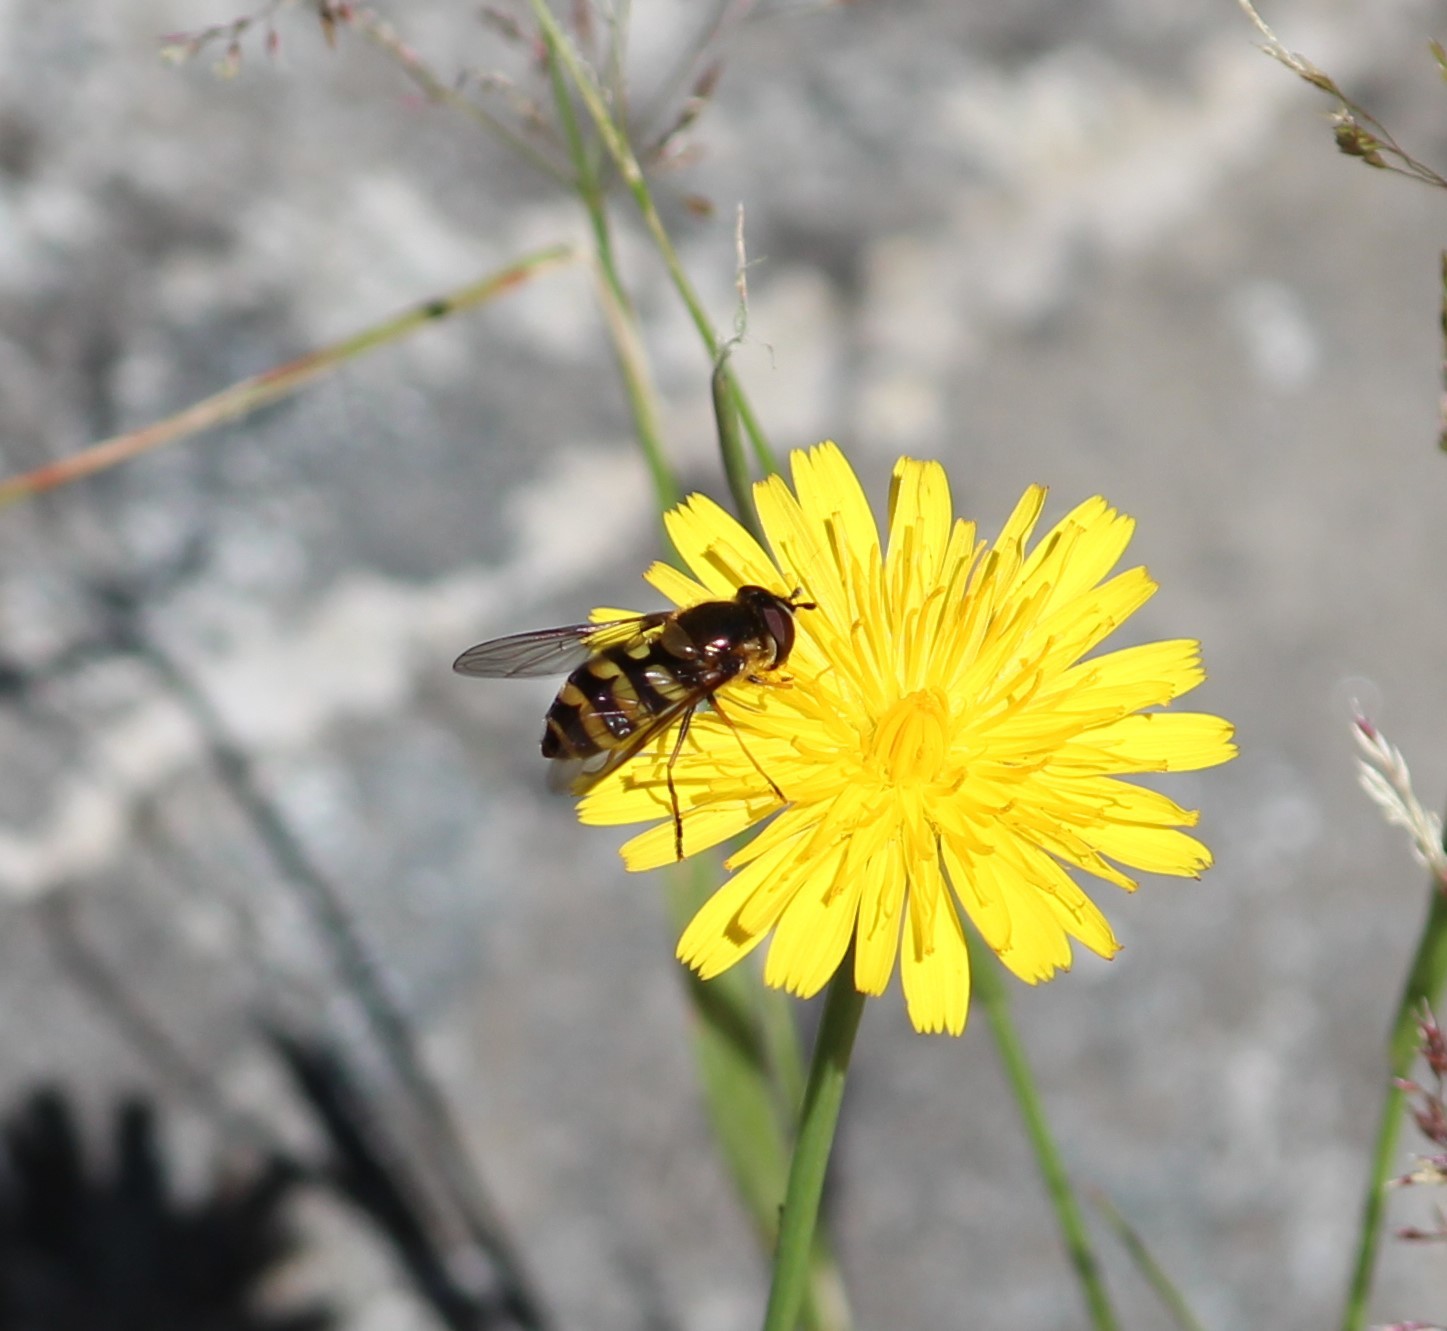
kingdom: Animalia
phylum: Arthropoda
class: Insecta
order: Diptera
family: Syrphidae
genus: Megasyrphus
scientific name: Megasyrphus laxus
